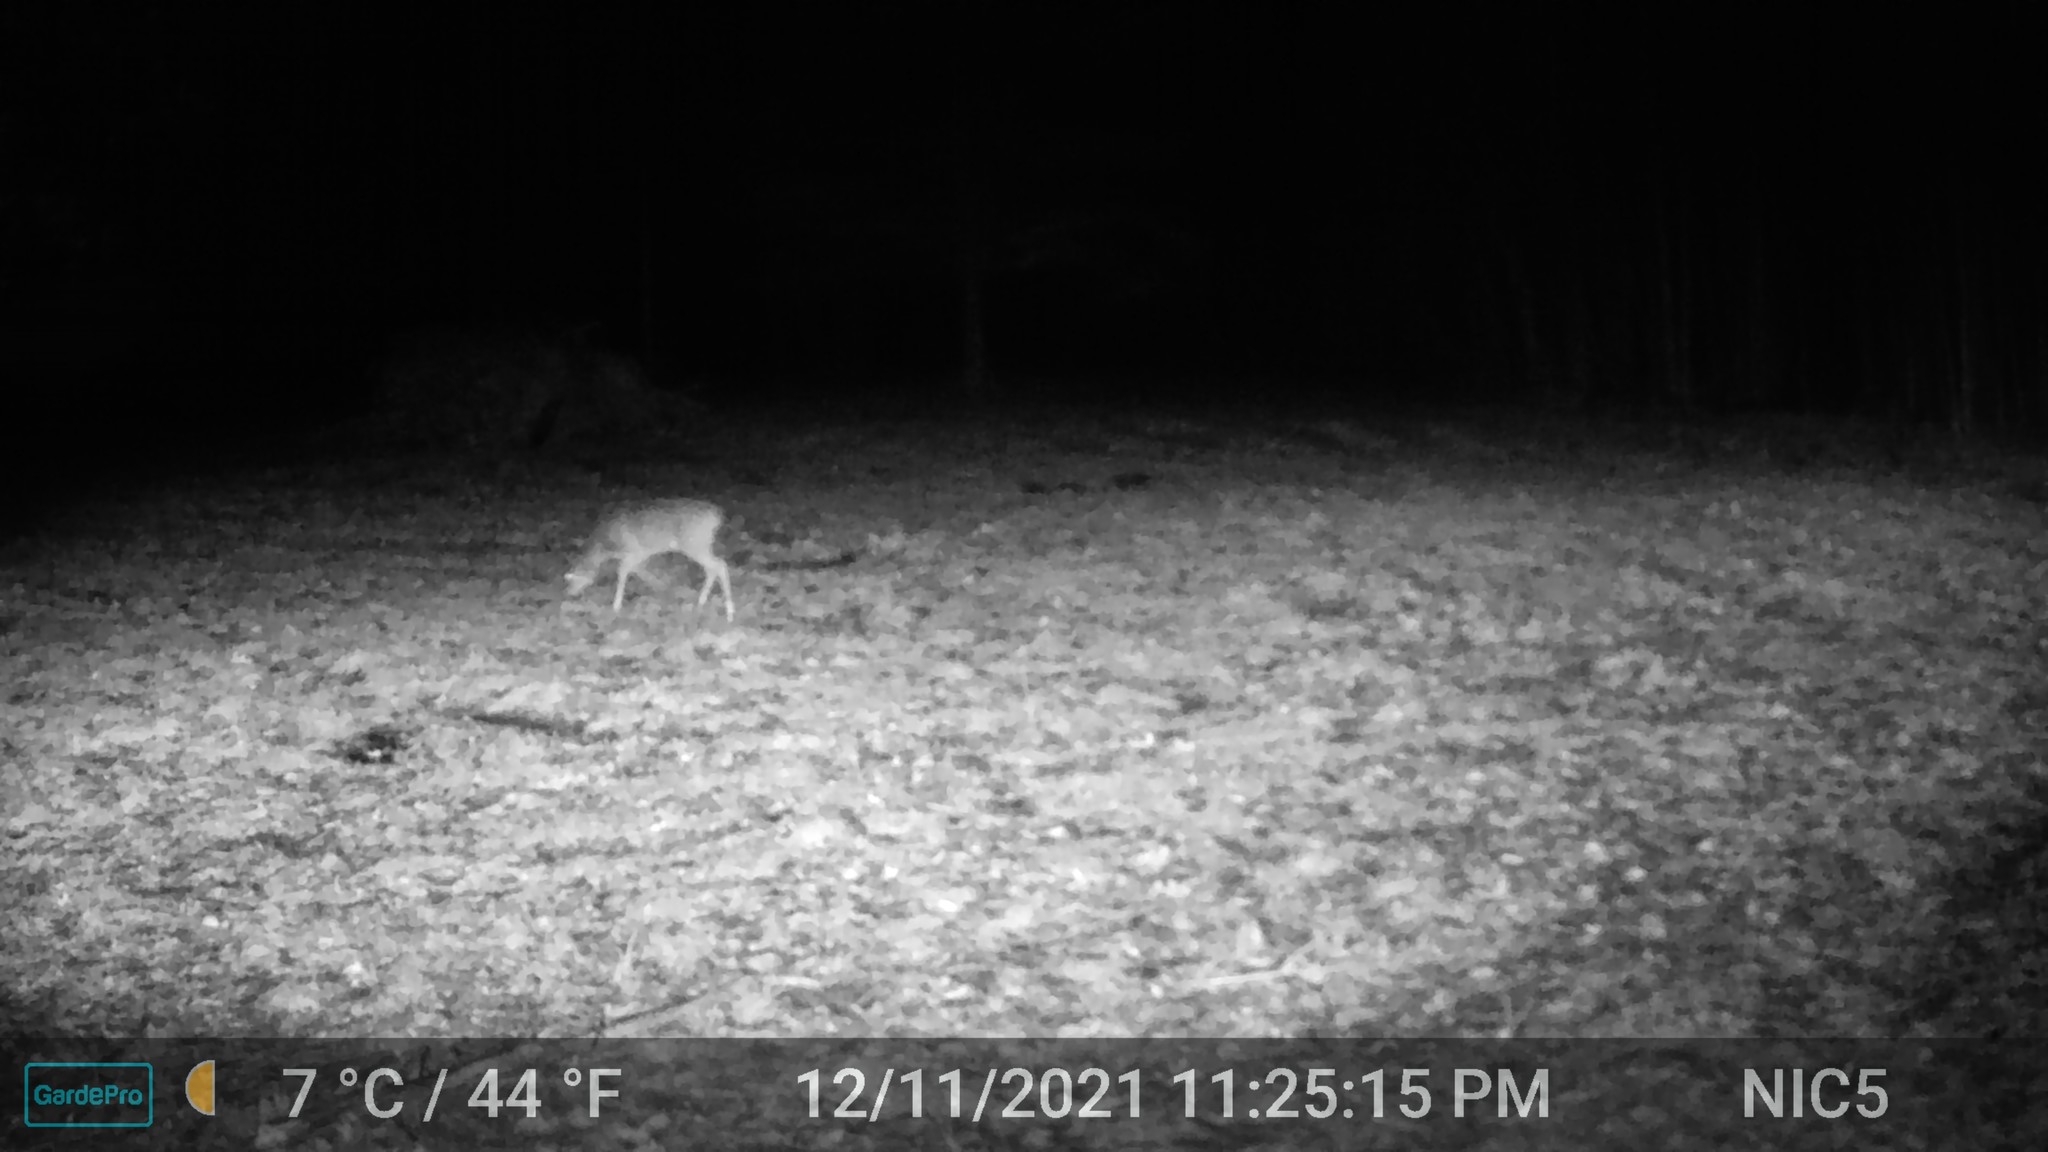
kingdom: Animalia
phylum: Chordata
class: Mammalia
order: Artiodactyla
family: Cervidae
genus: Odocoileus
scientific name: Odocoileus virginianus
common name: White-tailed deer
